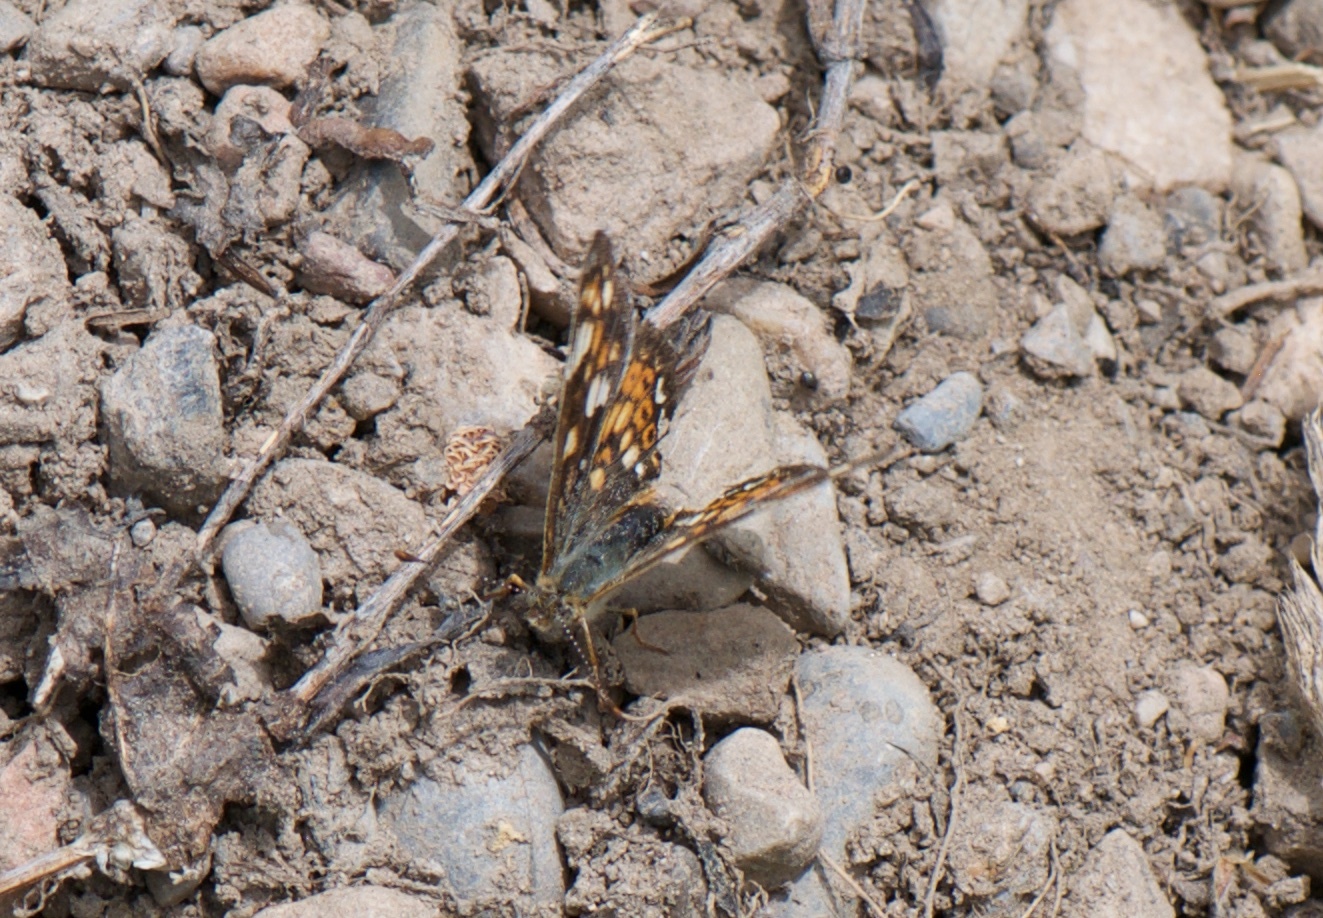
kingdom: Animalia
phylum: Arthropoda
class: Insecta
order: Lepidoptera
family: Nymphalidae
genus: Phyciodes
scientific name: Phyciodes tharos
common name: Pearl crescent
